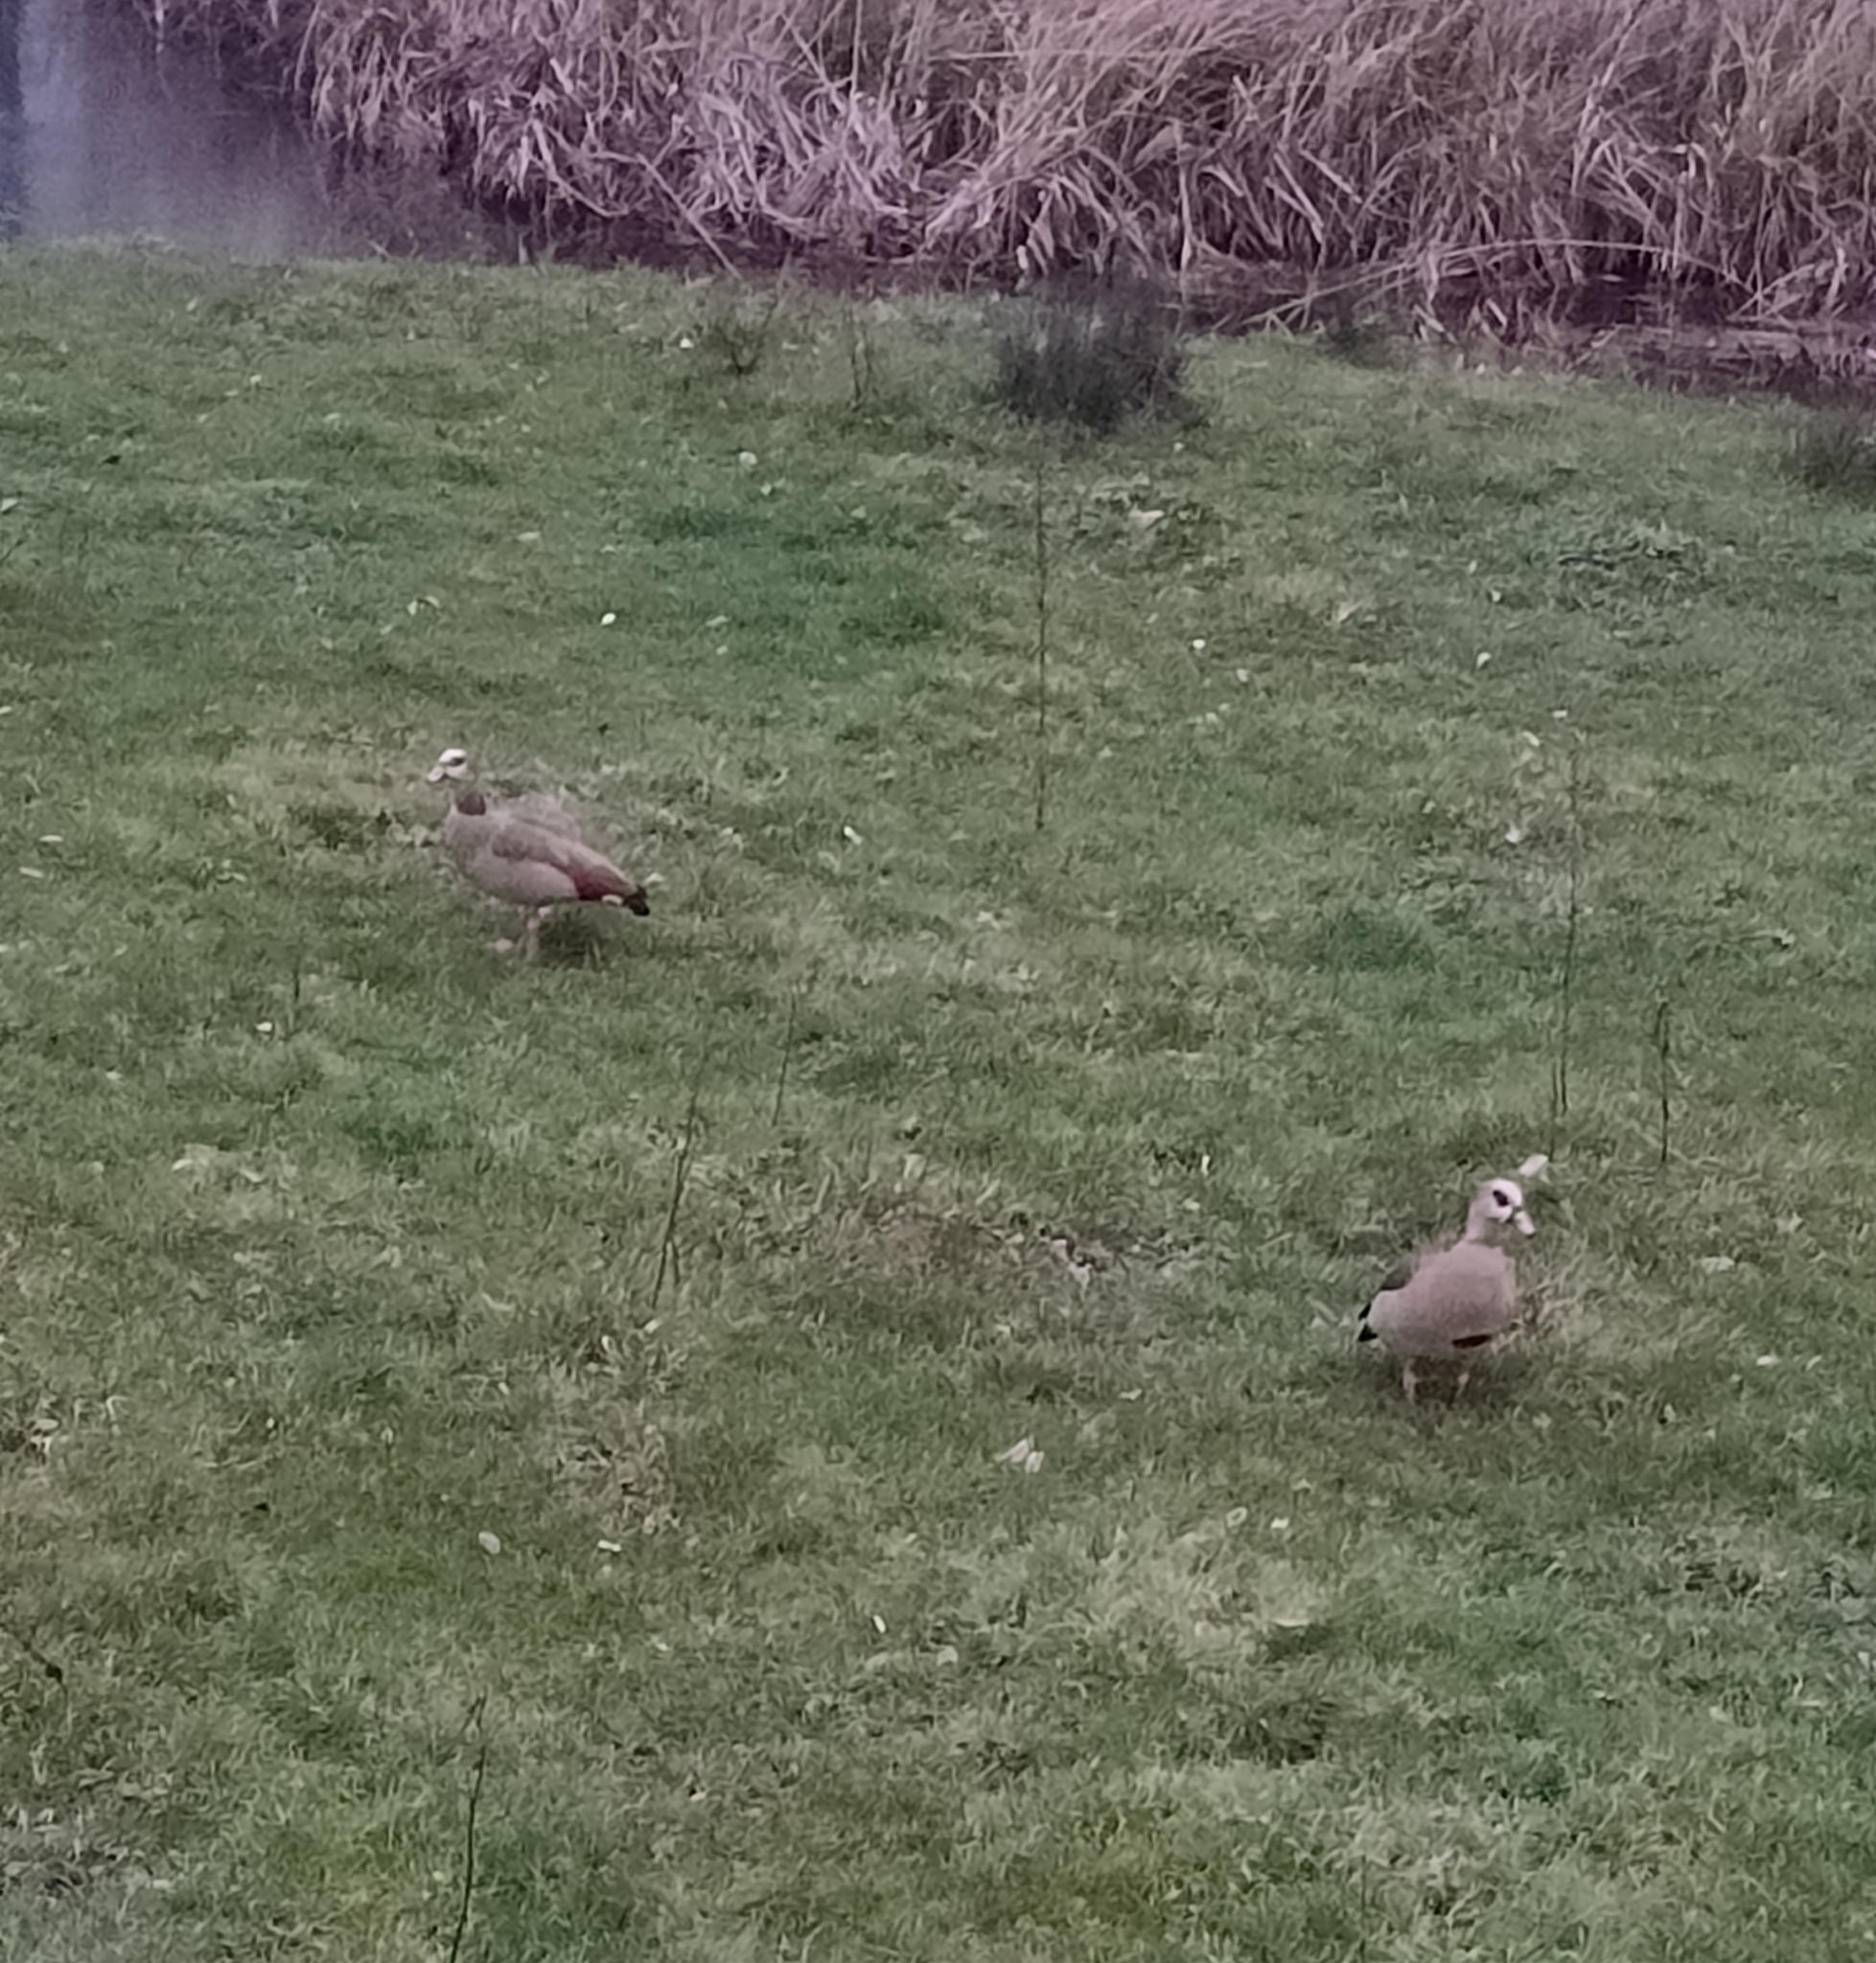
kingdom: Animalia
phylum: Chordata
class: Aves
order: Anseriformes
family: Anatidae
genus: Alopochen
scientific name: Alopochen aegyptiaca
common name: Egyptian goose
